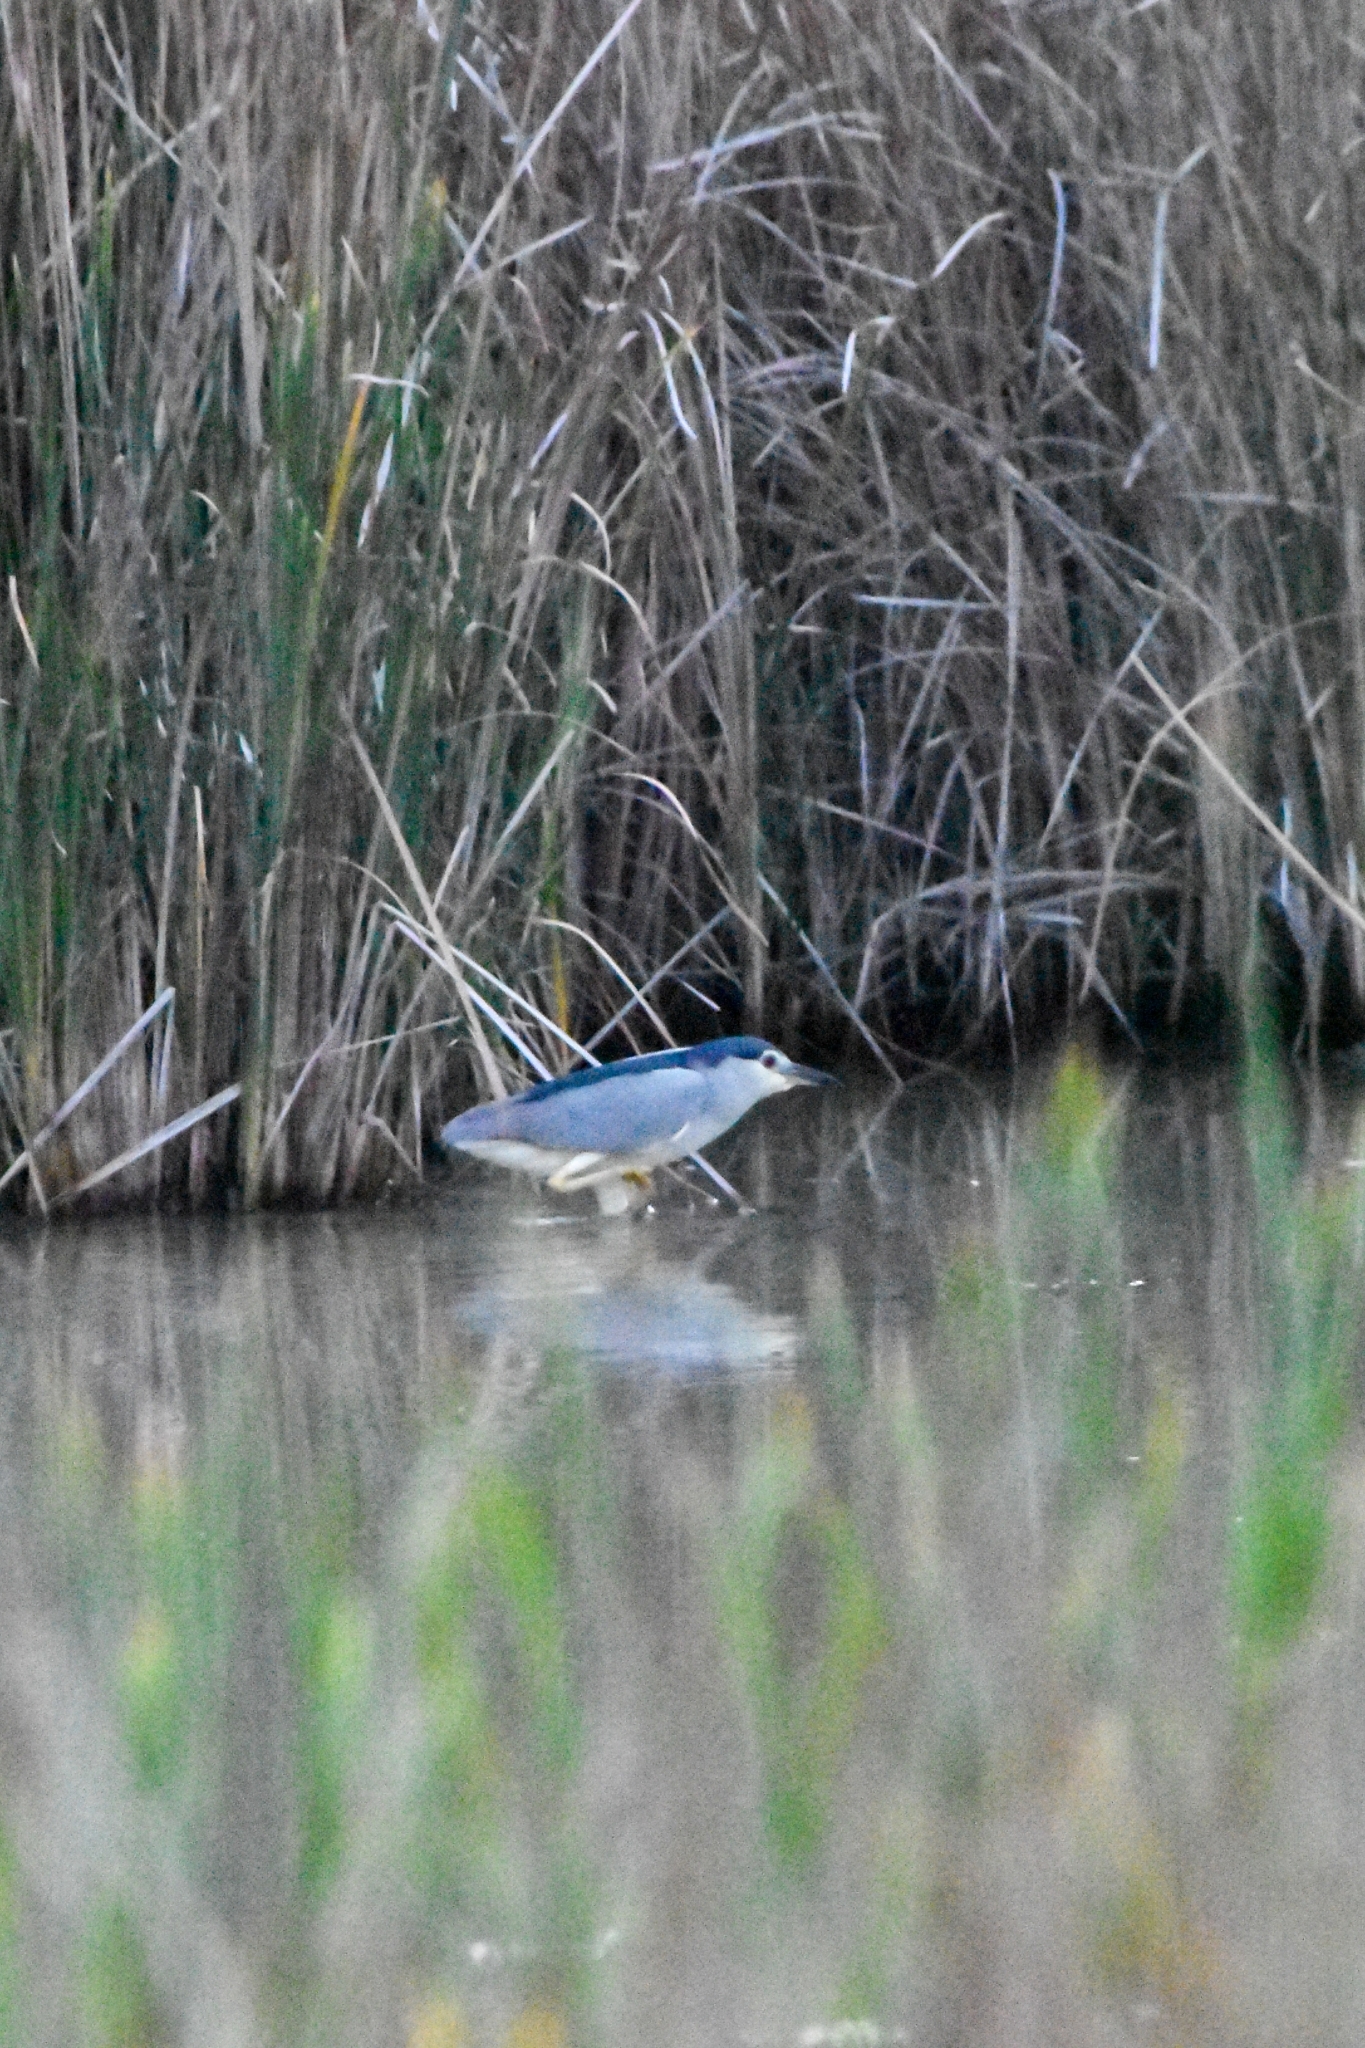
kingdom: Animalia
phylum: Chordata
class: Aves
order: Pelecaniformes
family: Ardeidae
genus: Nycticorax
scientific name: Nycticorax nycticorax
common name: Black-crowned night heron
